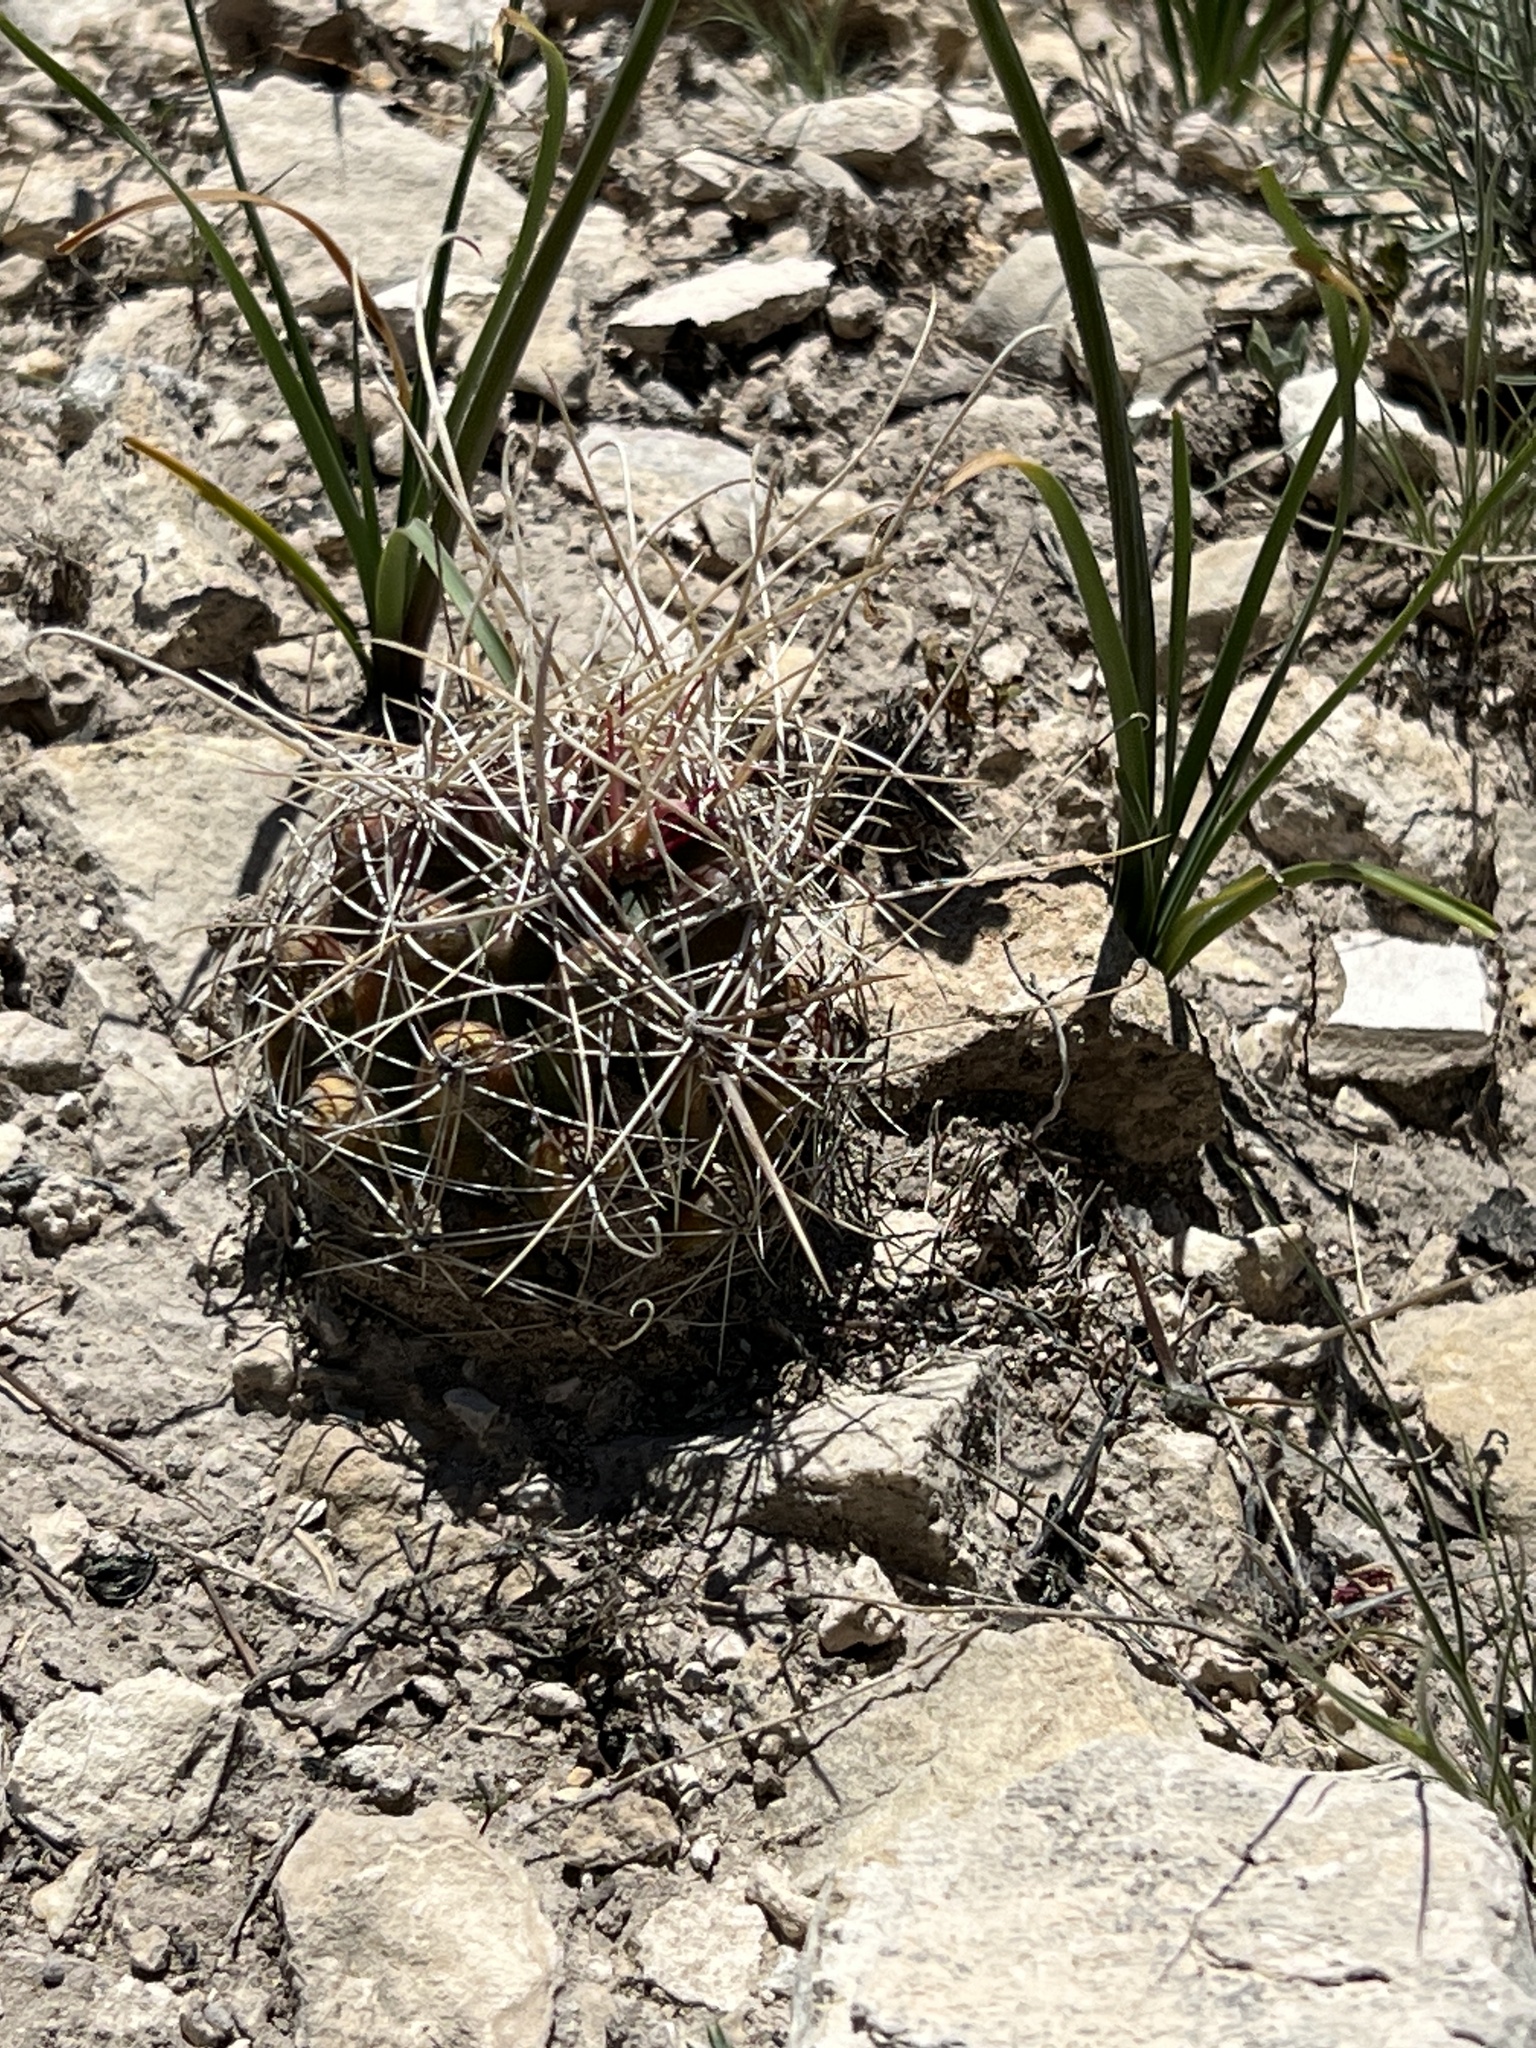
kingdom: Plantae
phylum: Tracheophyta
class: Magnoliopsida
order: Caryophyllales
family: Cactaceae
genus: Bisnaga
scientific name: Bisnaga hamatacantha
